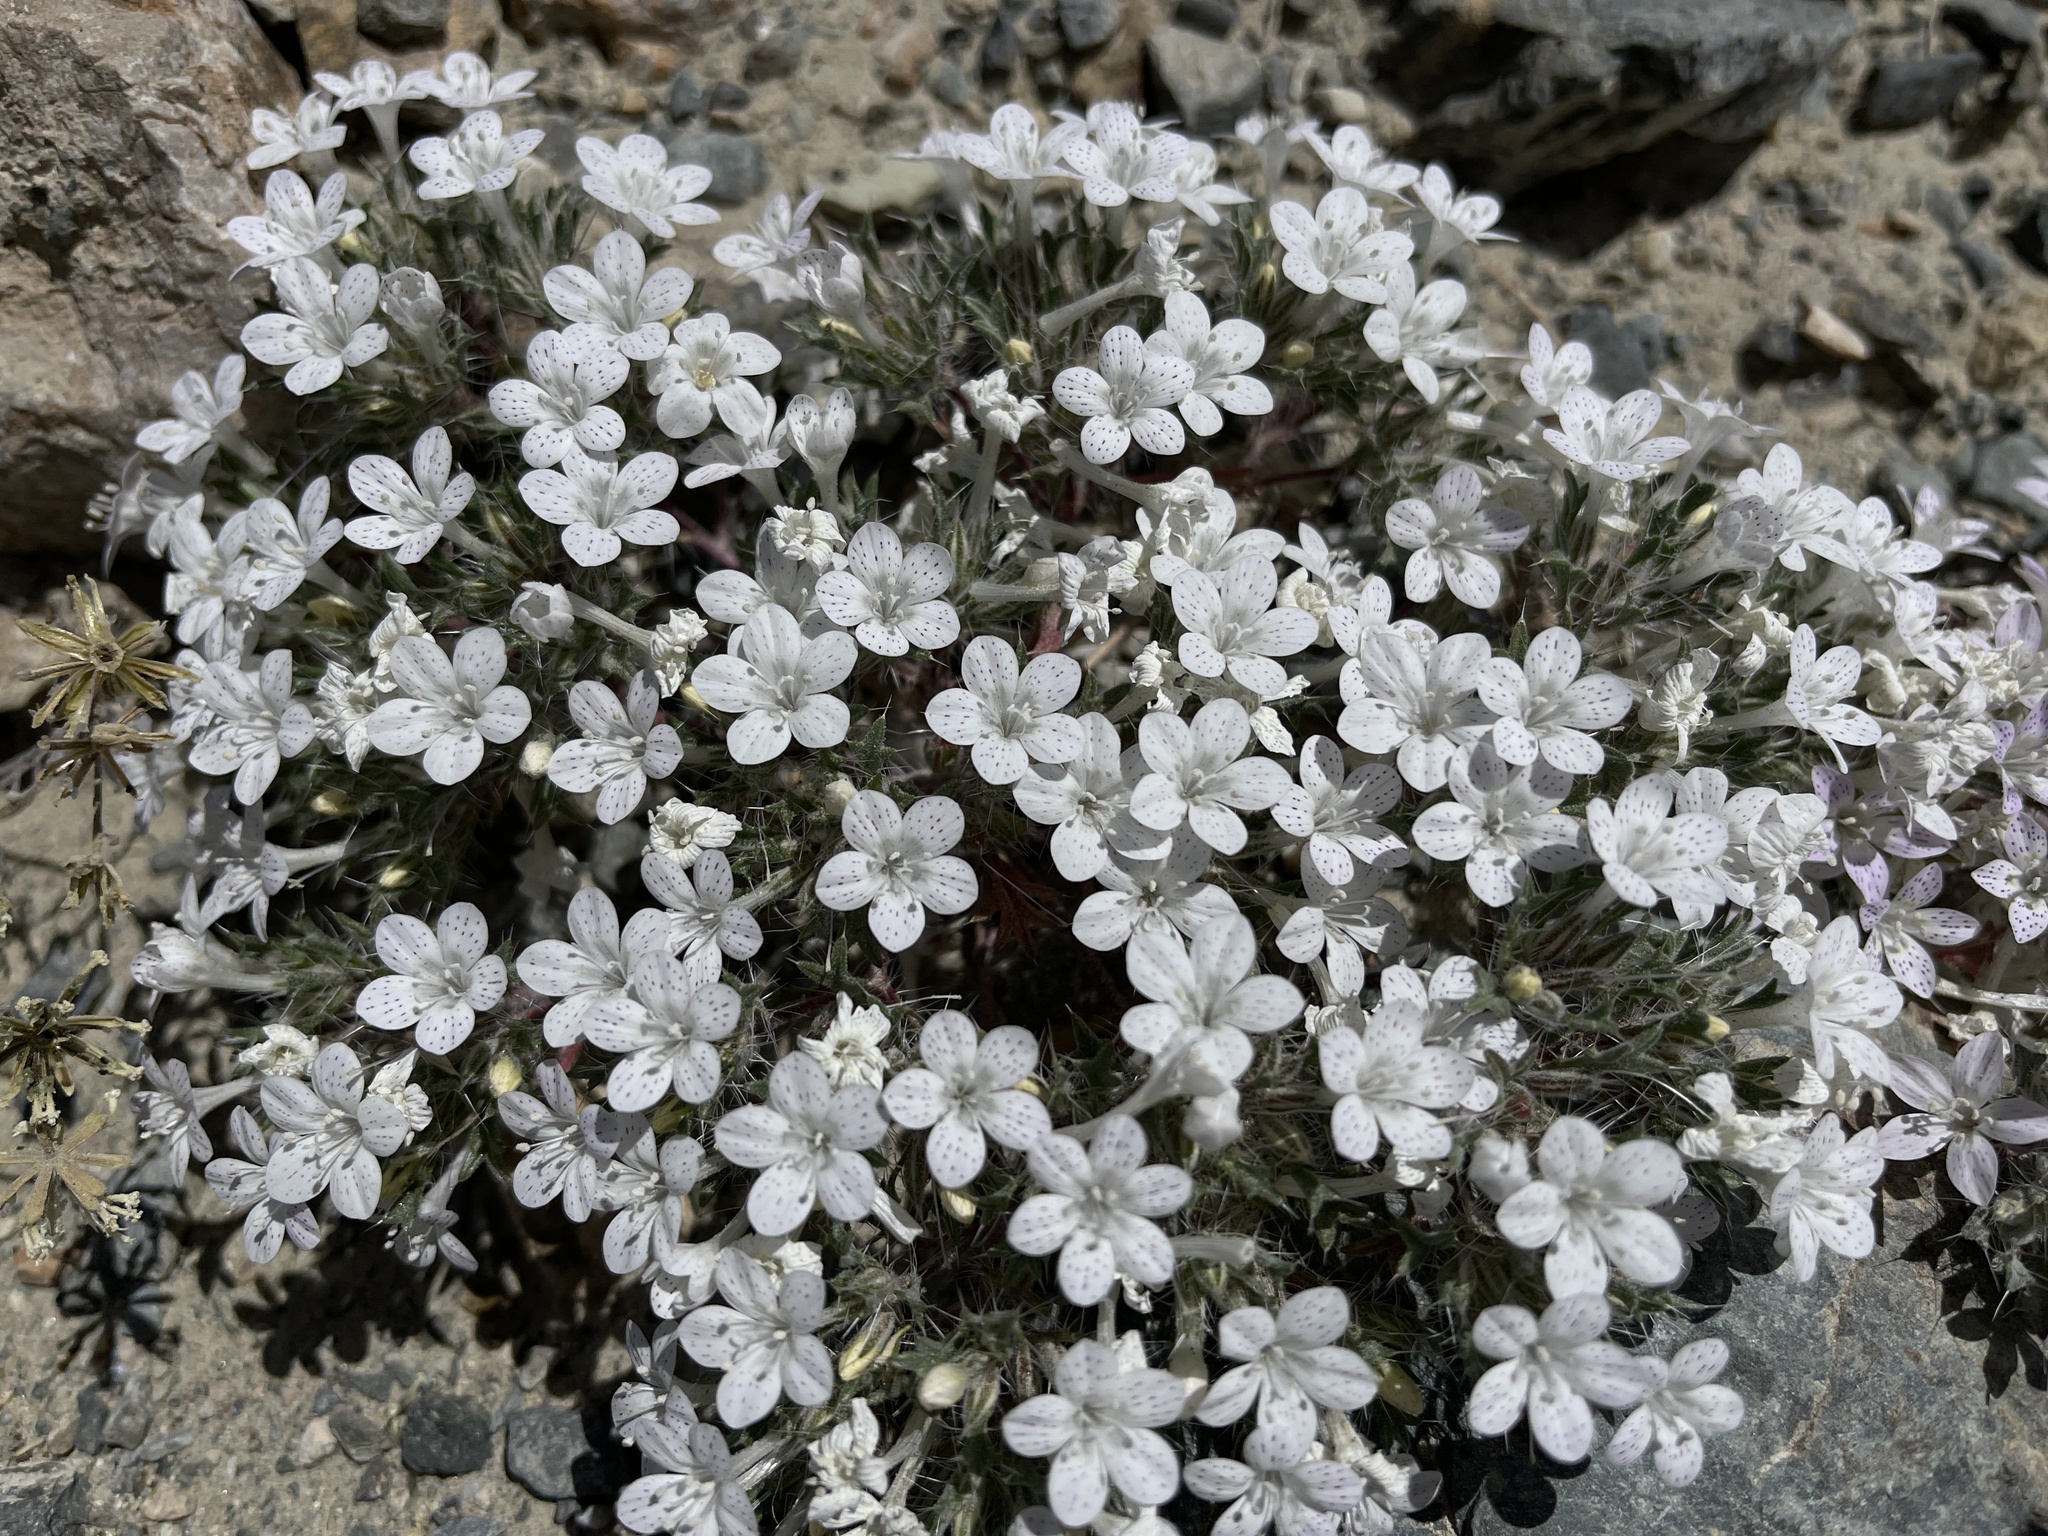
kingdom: Plantae
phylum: Tracheophyta
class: Magnoliopsida
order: Ericales
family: Polemoniaceae
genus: Langloisia
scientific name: Langloisia setosissima
